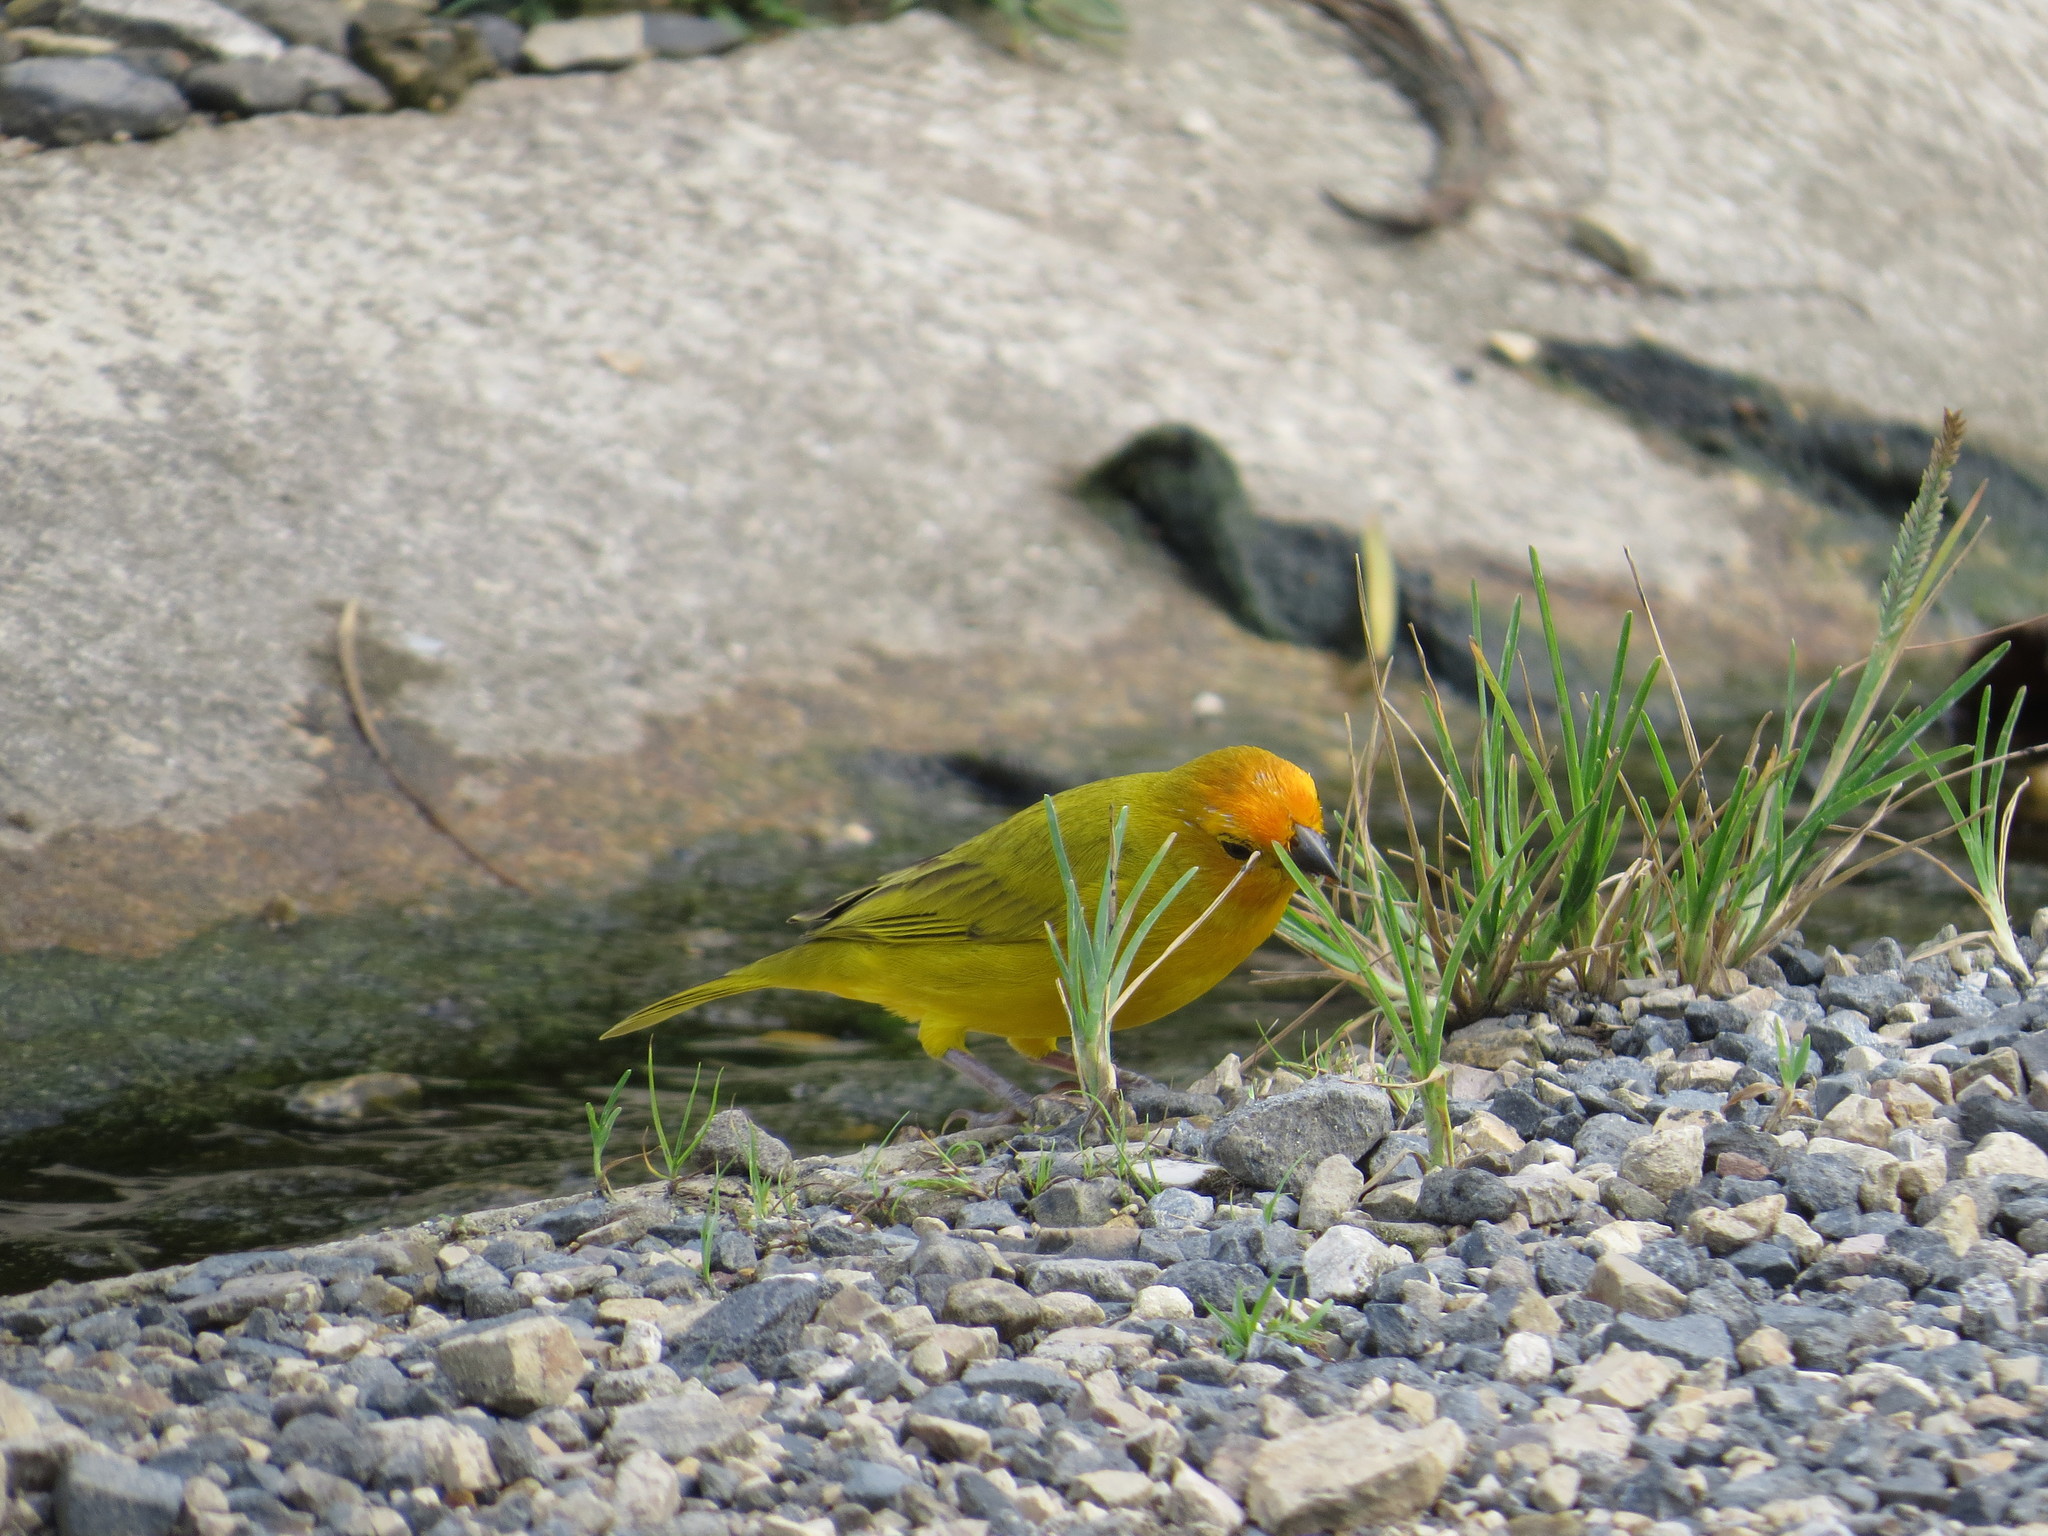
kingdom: Animalia
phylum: Chordata
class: Aves
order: Passeriformes
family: Thraupidae
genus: Sicalis
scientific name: Sicalis flaveola
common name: Saffron finch
